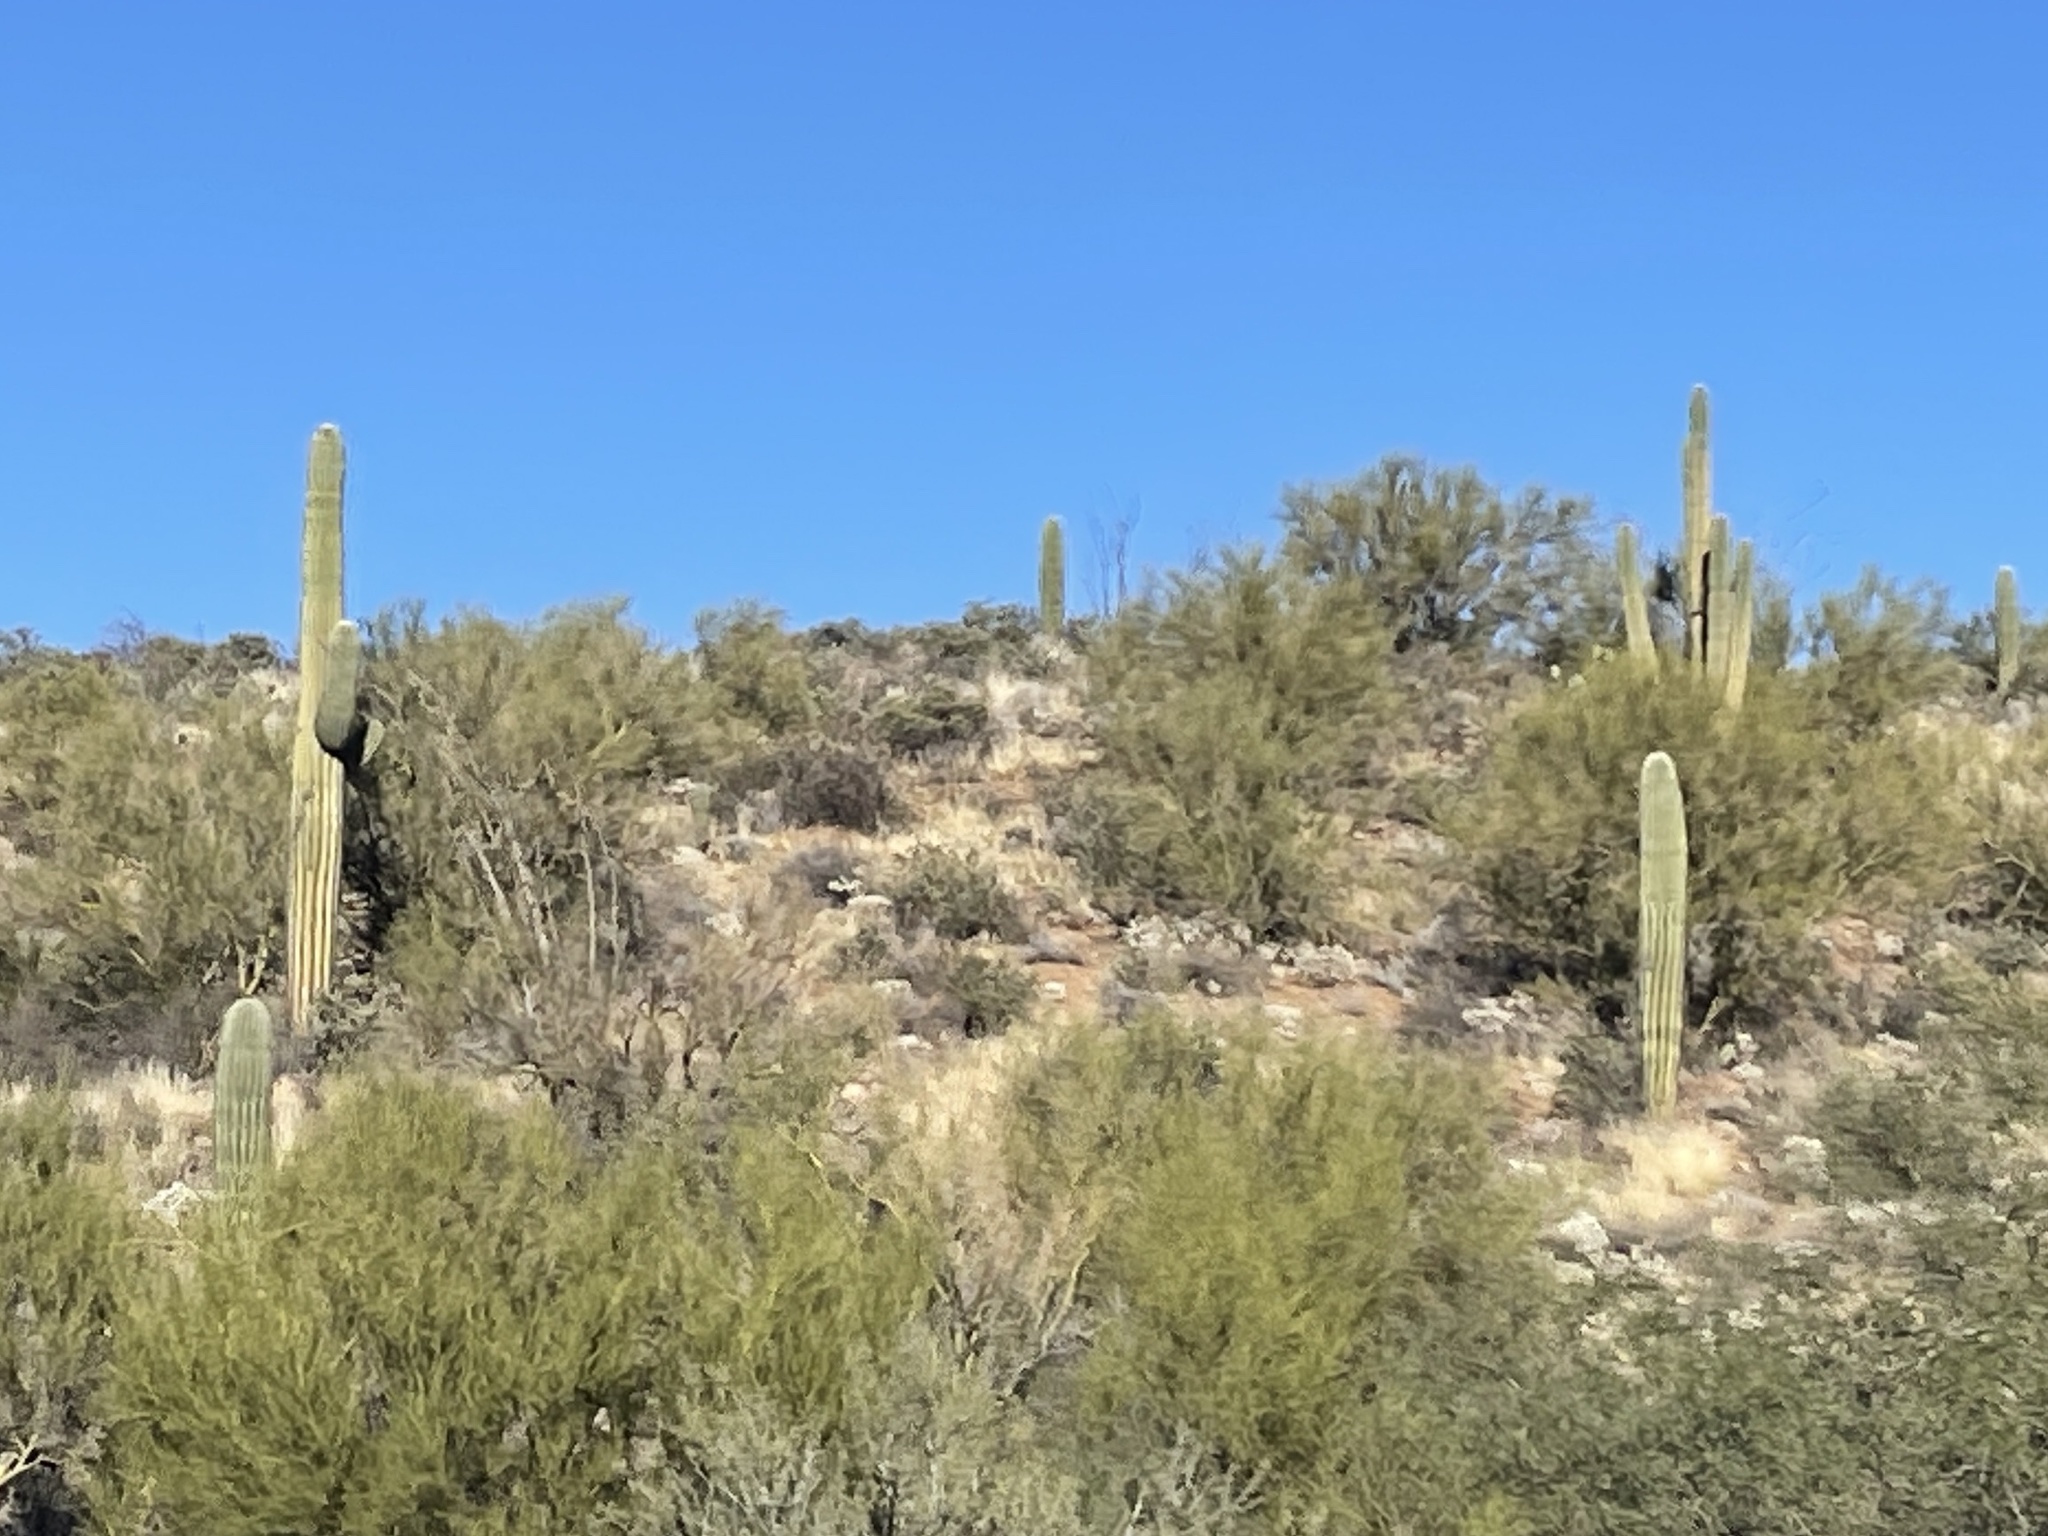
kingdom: Plantae
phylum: Tracheophyta
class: Magnoliopsida
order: Caryophyllales
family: Cactaceae
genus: Carnegiea
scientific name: Carnegiea gigantea
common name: Saguaro
